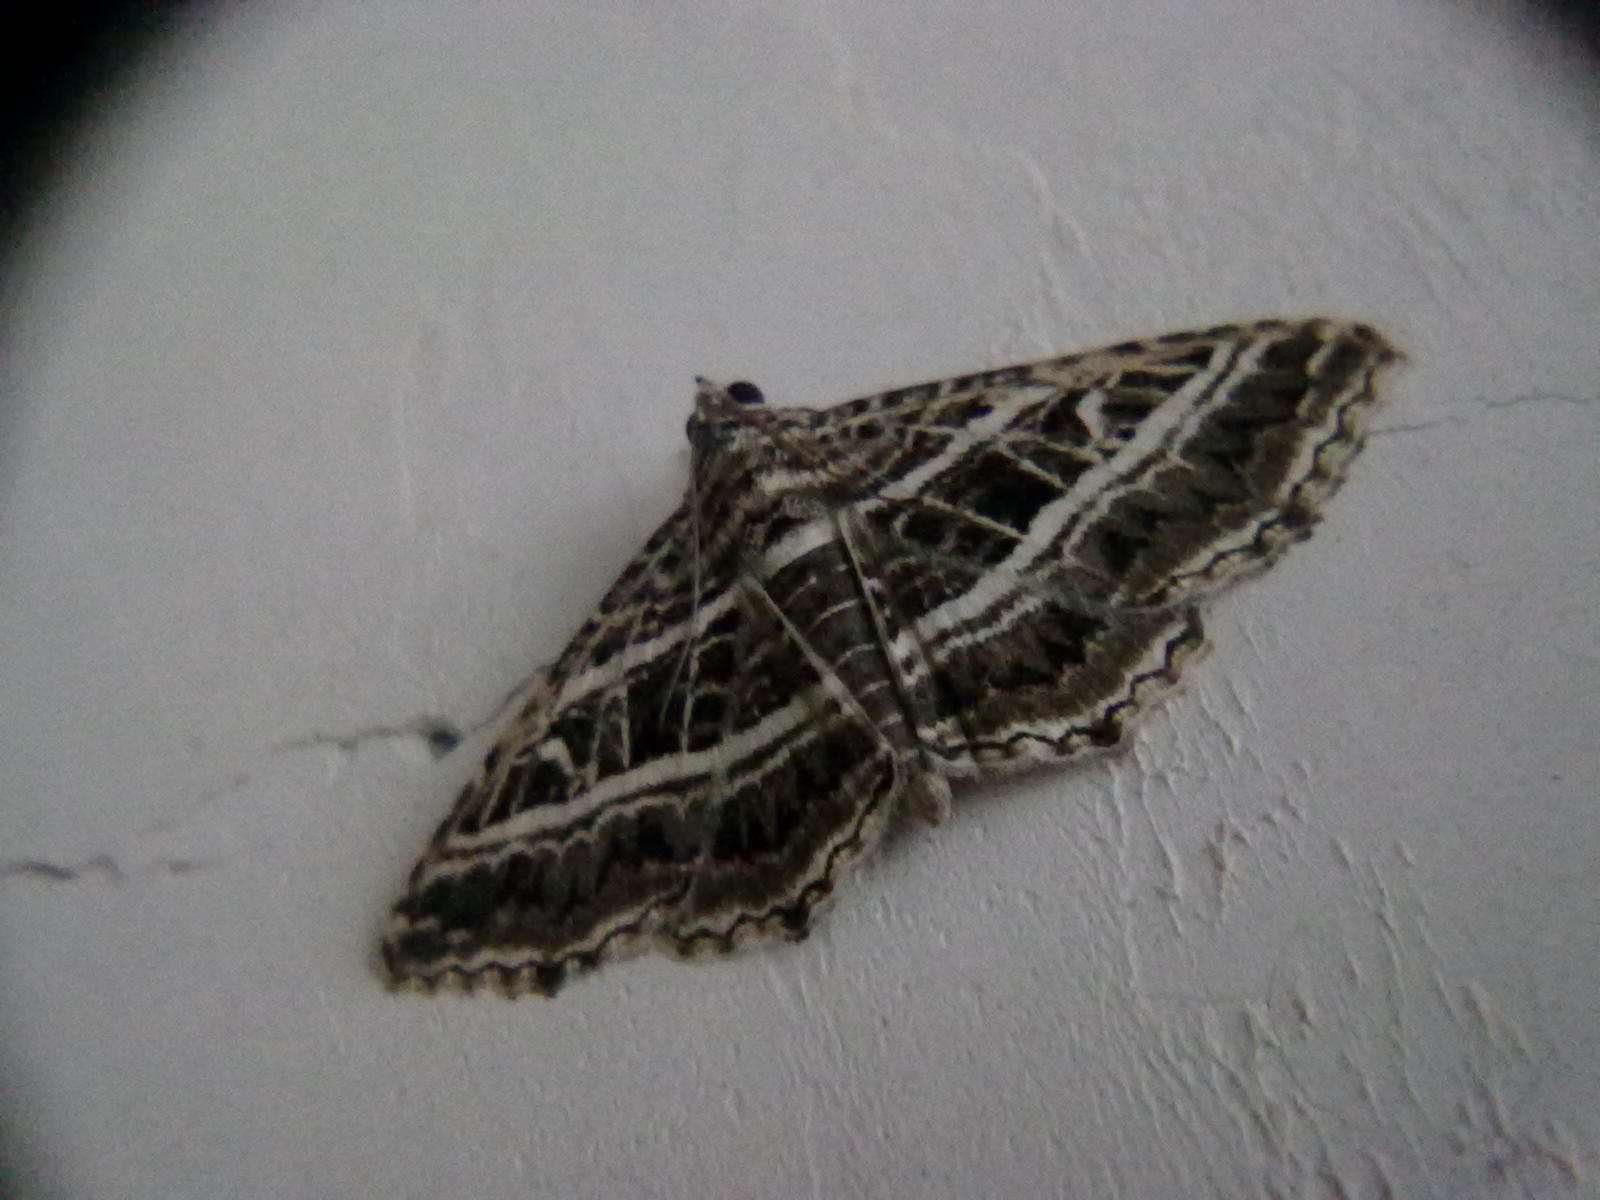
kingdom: Animalia
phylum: Arthropoda
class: Insecta
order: Lepidoptera
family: Erebidae
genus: Homaea
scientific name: Homaea clathrum
